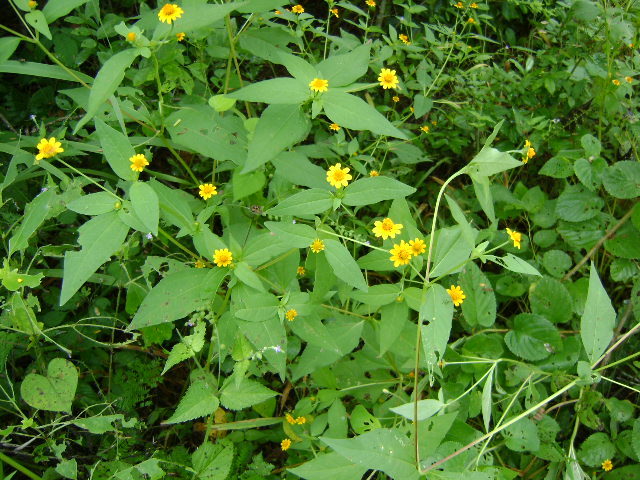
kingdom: Plantae
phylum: Tracheophyta
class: Magnoliopsida
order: Asterales
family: Asteraceae
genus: Melampodium
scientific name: Melampodium divaricatum
